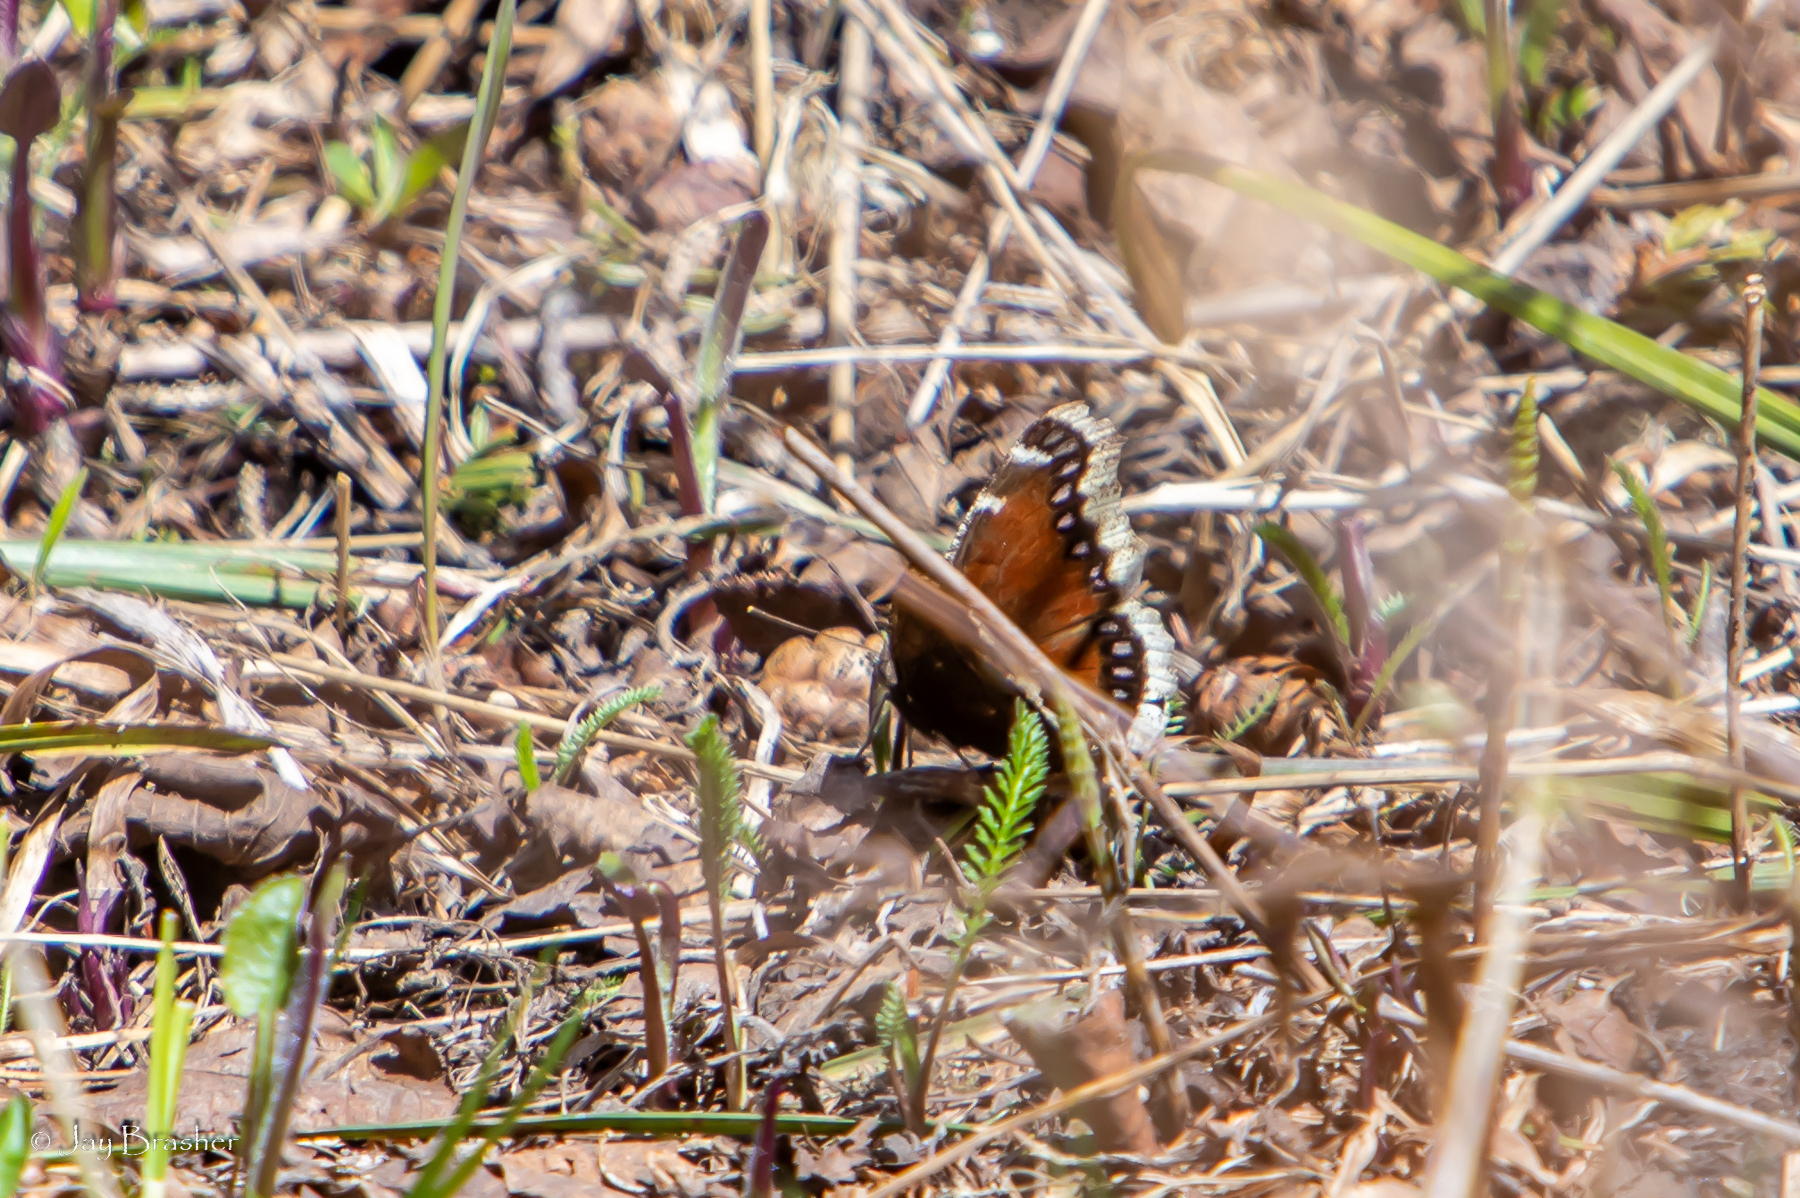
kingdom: Animalia
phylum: Arthropoda
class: Insecta
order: Lepidoptera
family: Nymphalidae
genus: Nymphalis
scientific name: Nymphalis antiopa
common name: Camberwell beauty
